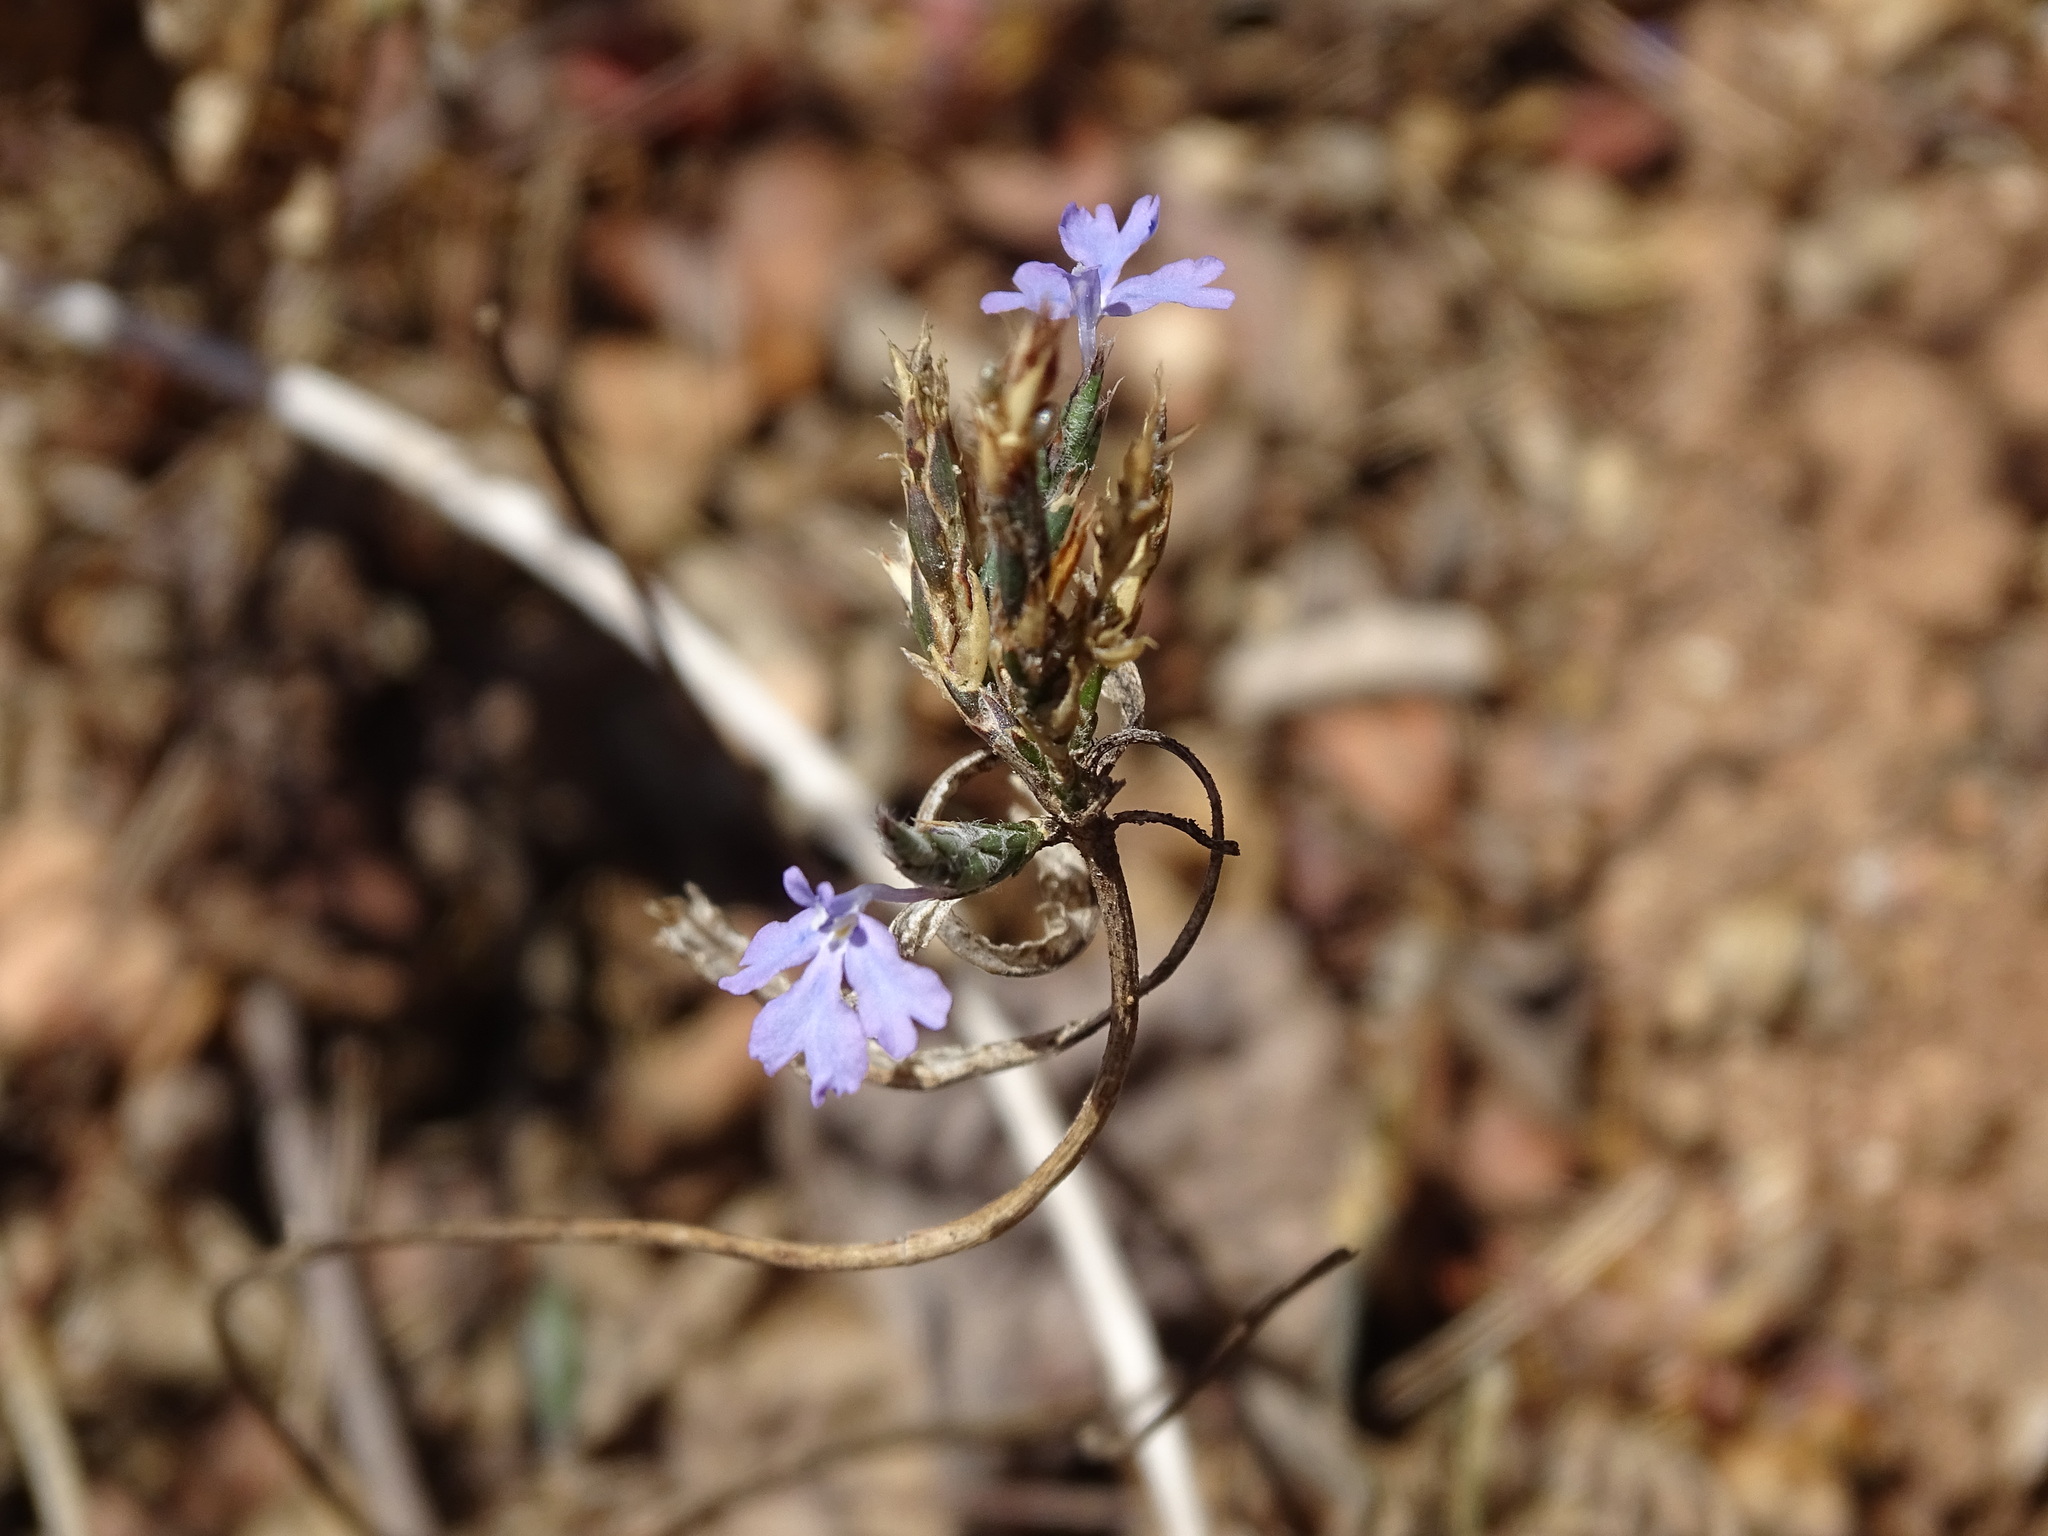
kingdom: Plantae
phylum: Tracheophyta
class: Magnoliopsida
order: Lamiales
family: Acanthaceae
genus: Elytraria
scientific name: Elytraria imbricata
